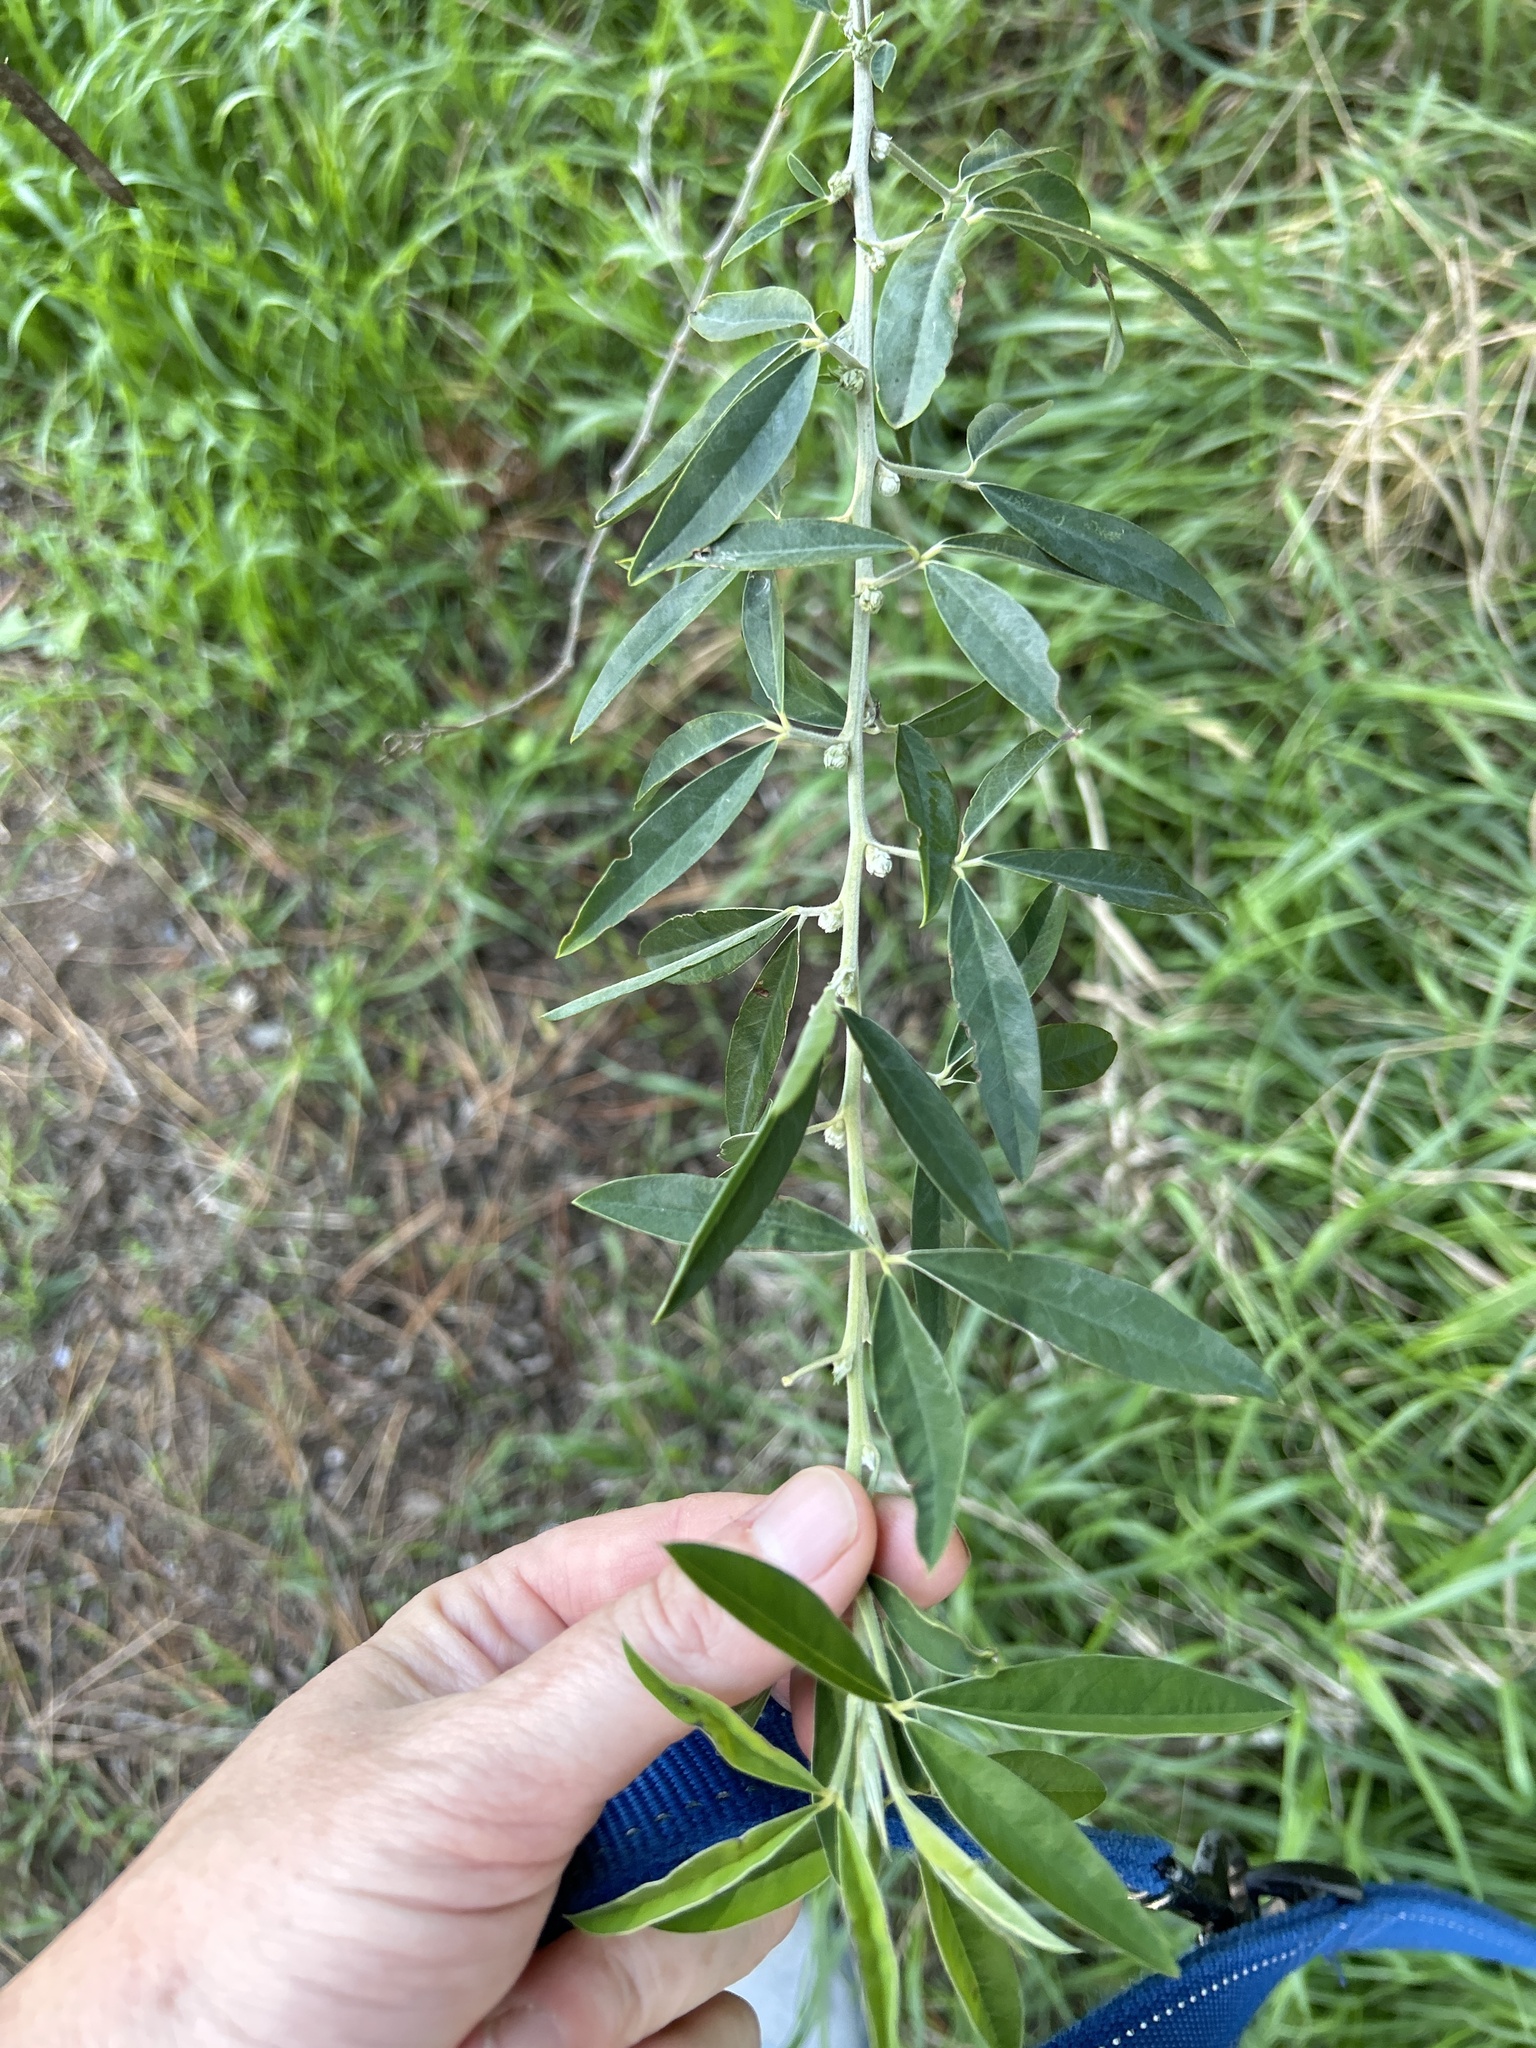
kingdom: Plantae
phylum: Tracheophyta
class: Magnoliopsida
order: Fabales
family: Fabaceae
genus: Chamaecytisus
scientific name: Chamaecytisus prolifer
